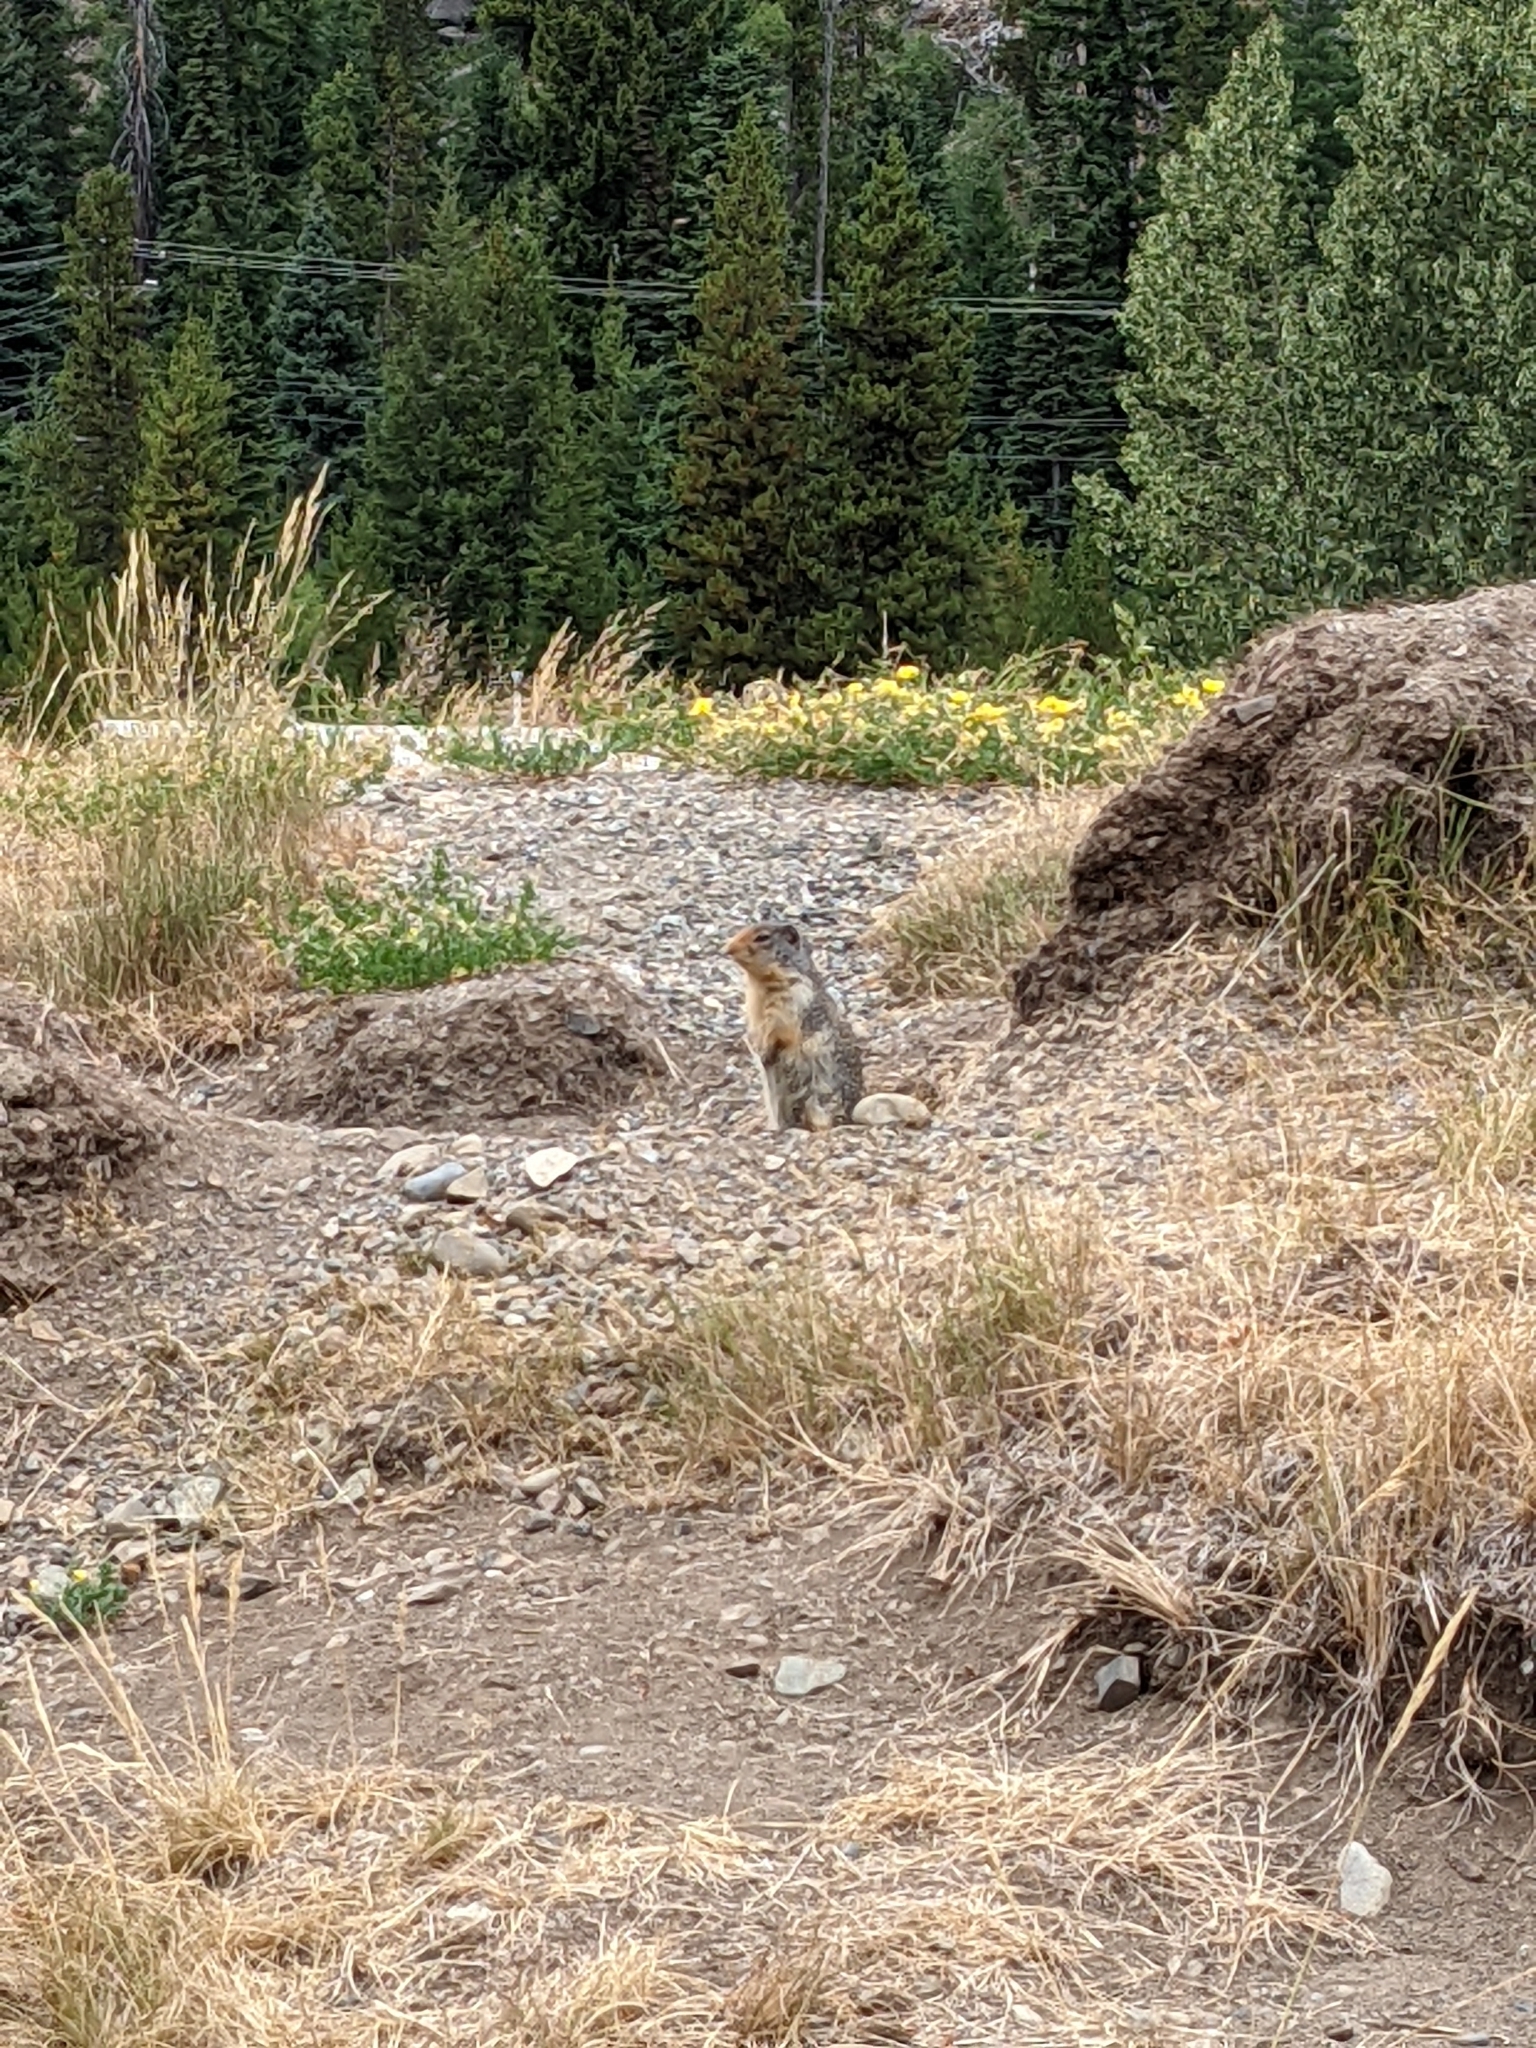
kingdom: Animalia
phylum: Chordata
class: Mammalia
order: Rodentia
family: Sciuridae
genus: Urocitellus
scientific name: Urocitellus columbianus
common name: Columbian ground squirrel
